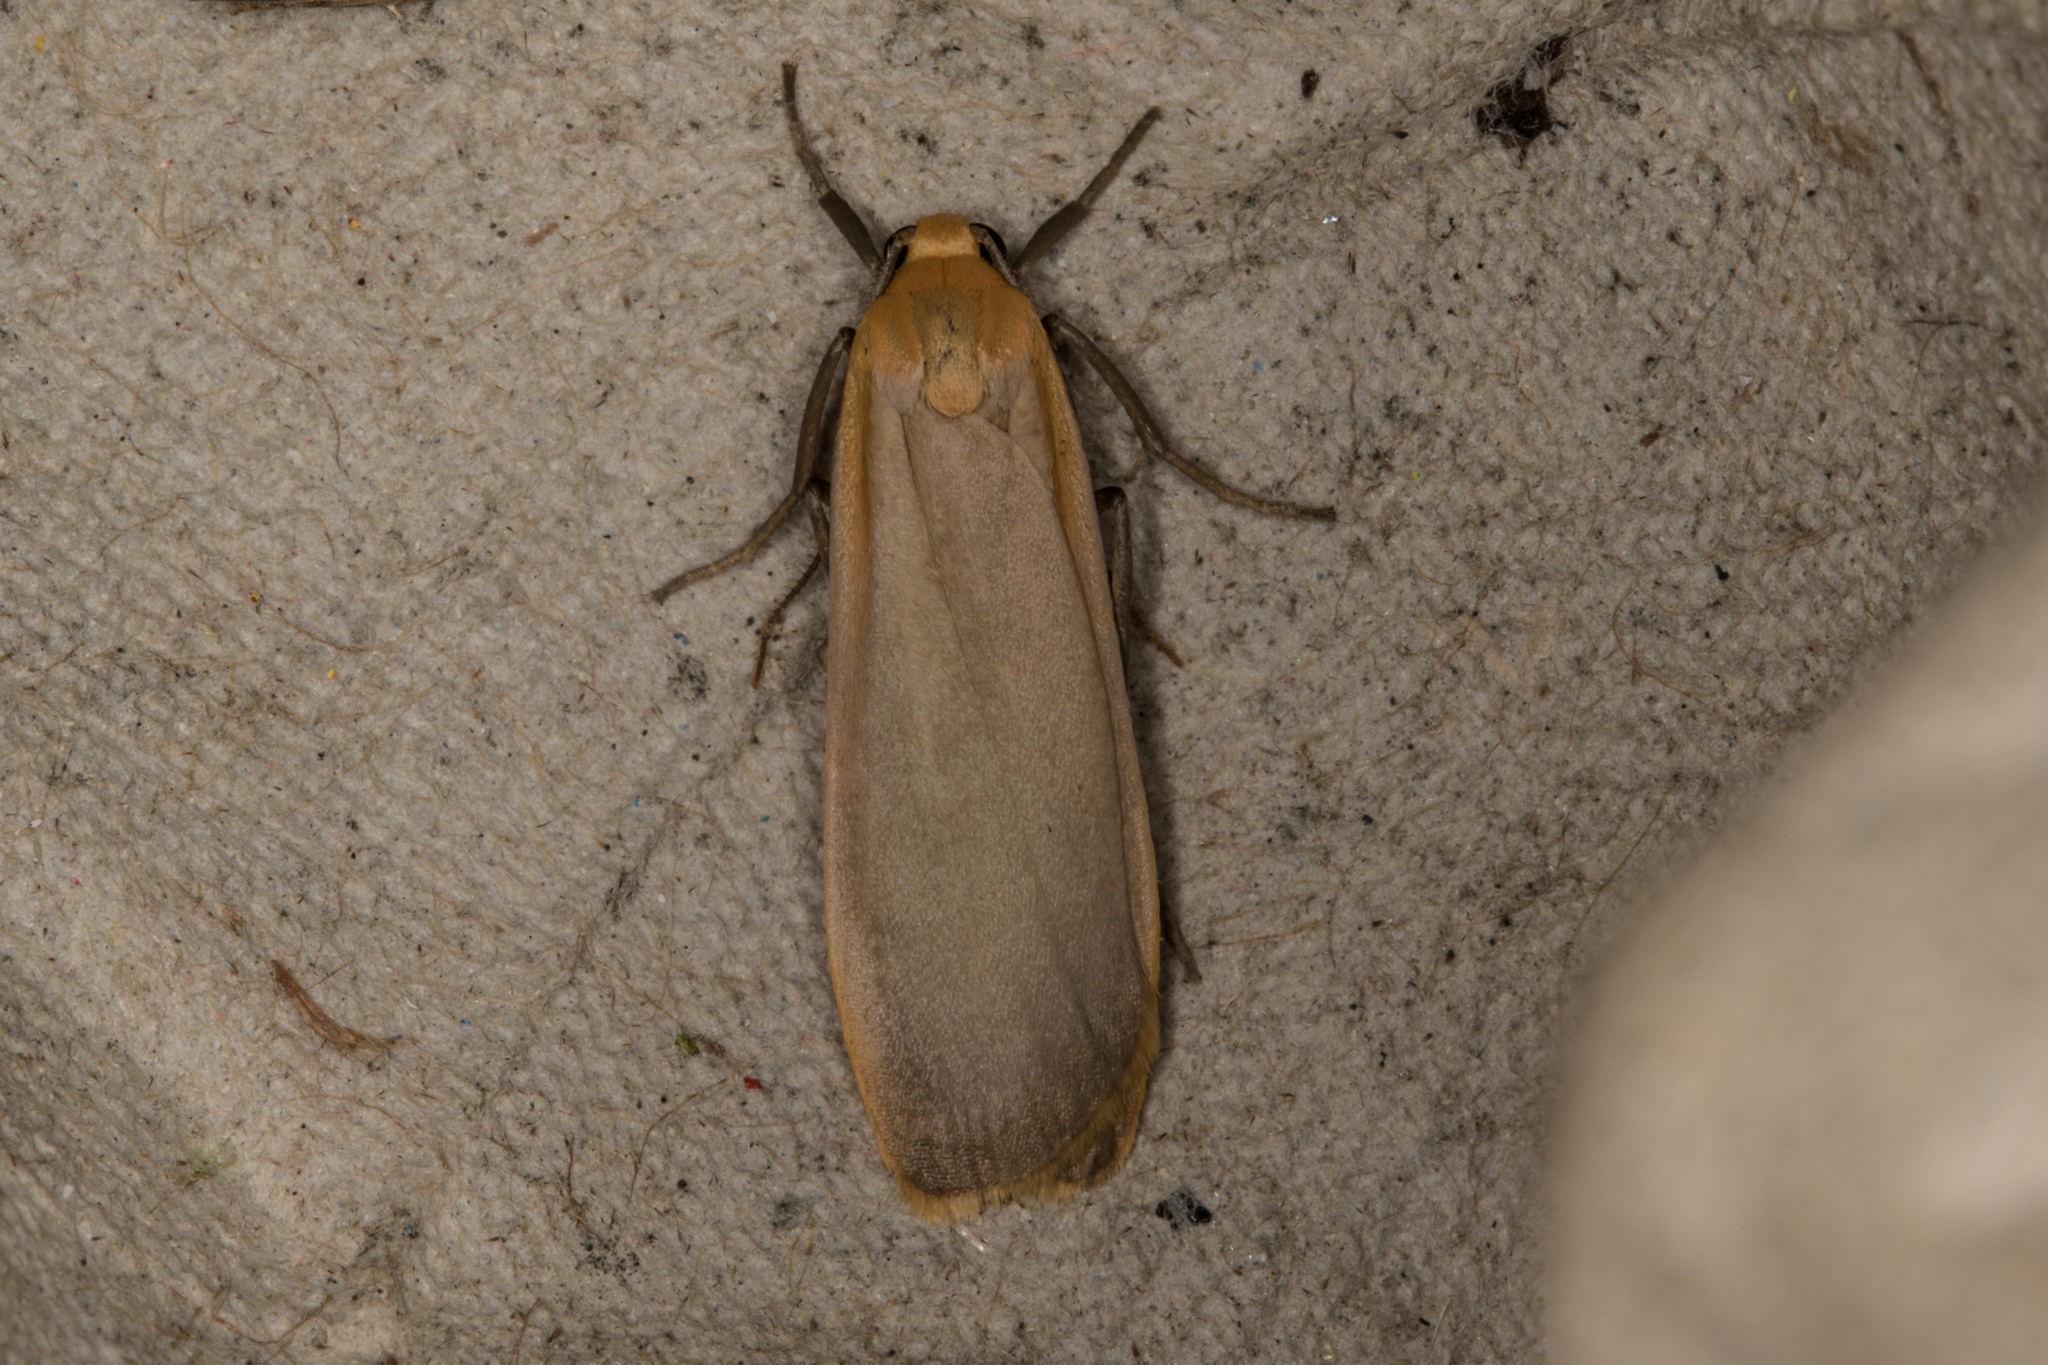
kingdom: Animalia
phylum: Arthropoda
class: Insecta
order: Lepidoptera
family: Erebidae
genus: Katha
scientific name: Katha depressa
